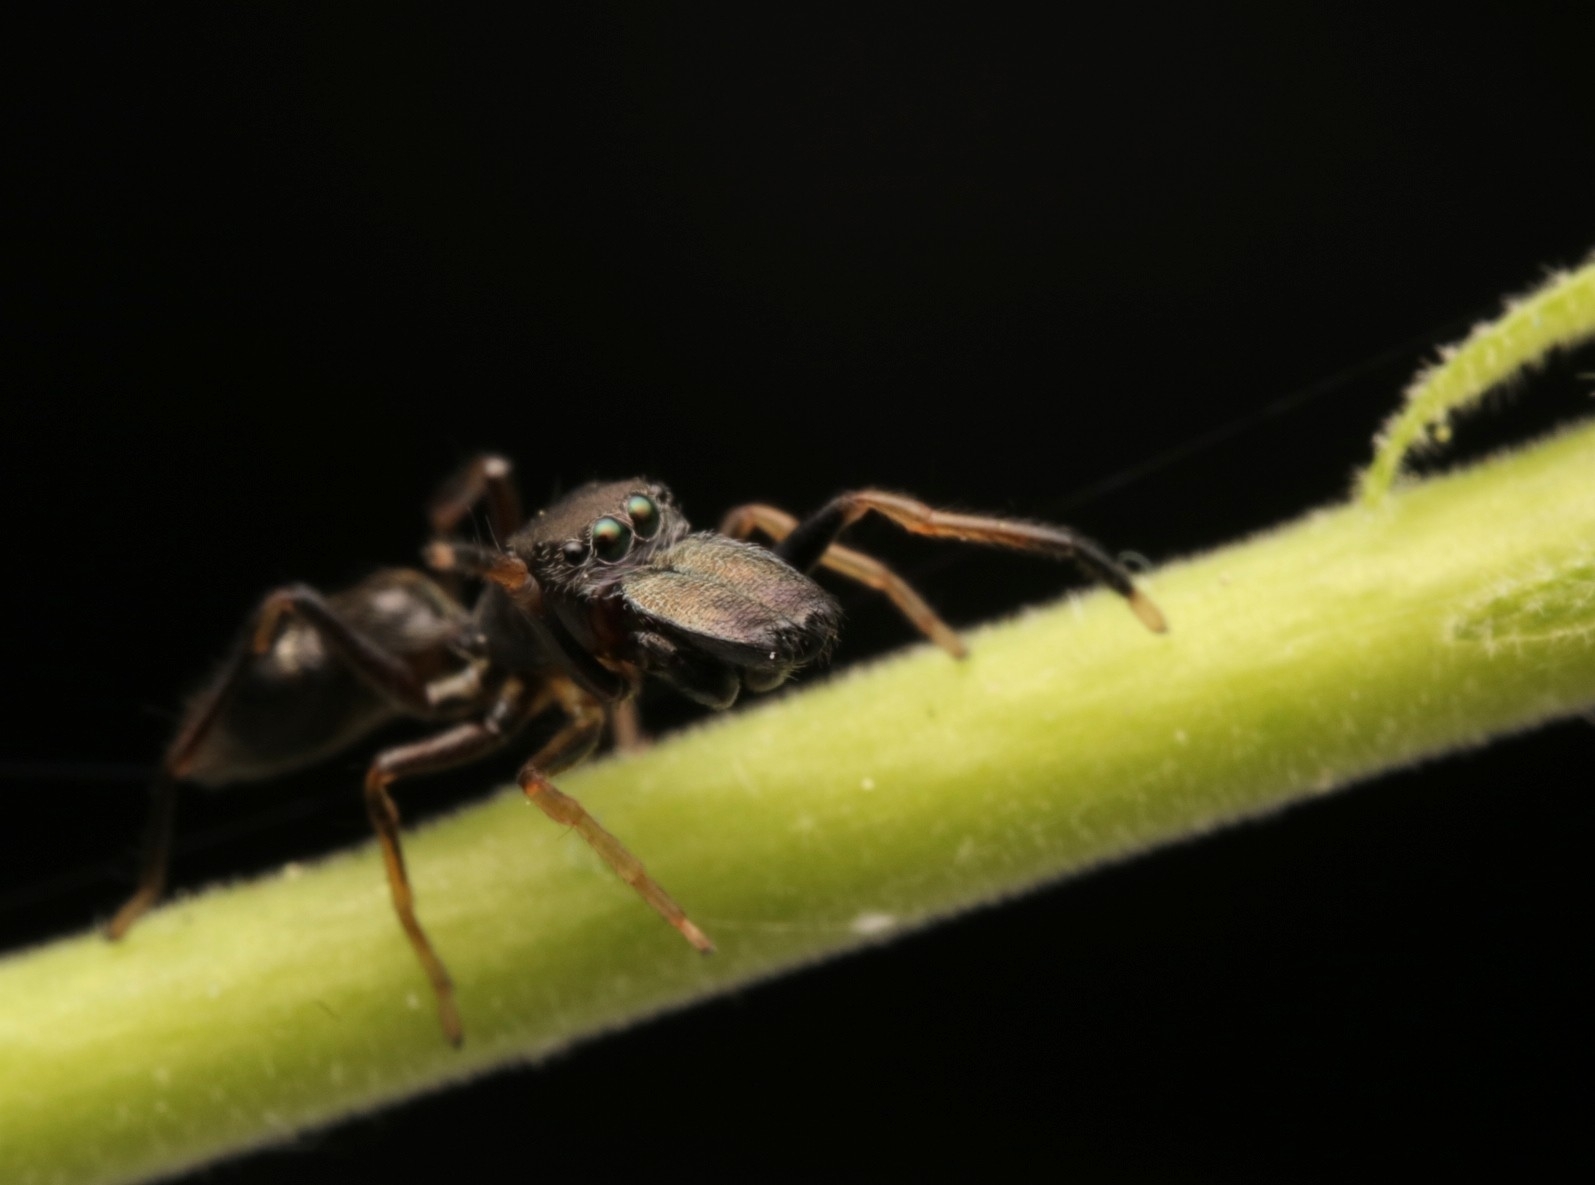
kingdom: Animalia
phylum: Arthropoda
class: Arachnida
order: Araneae
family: Salticidae
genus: Myrmarachne
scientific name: Myrmarachne formicaria
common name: Ant mimic jumping spider
